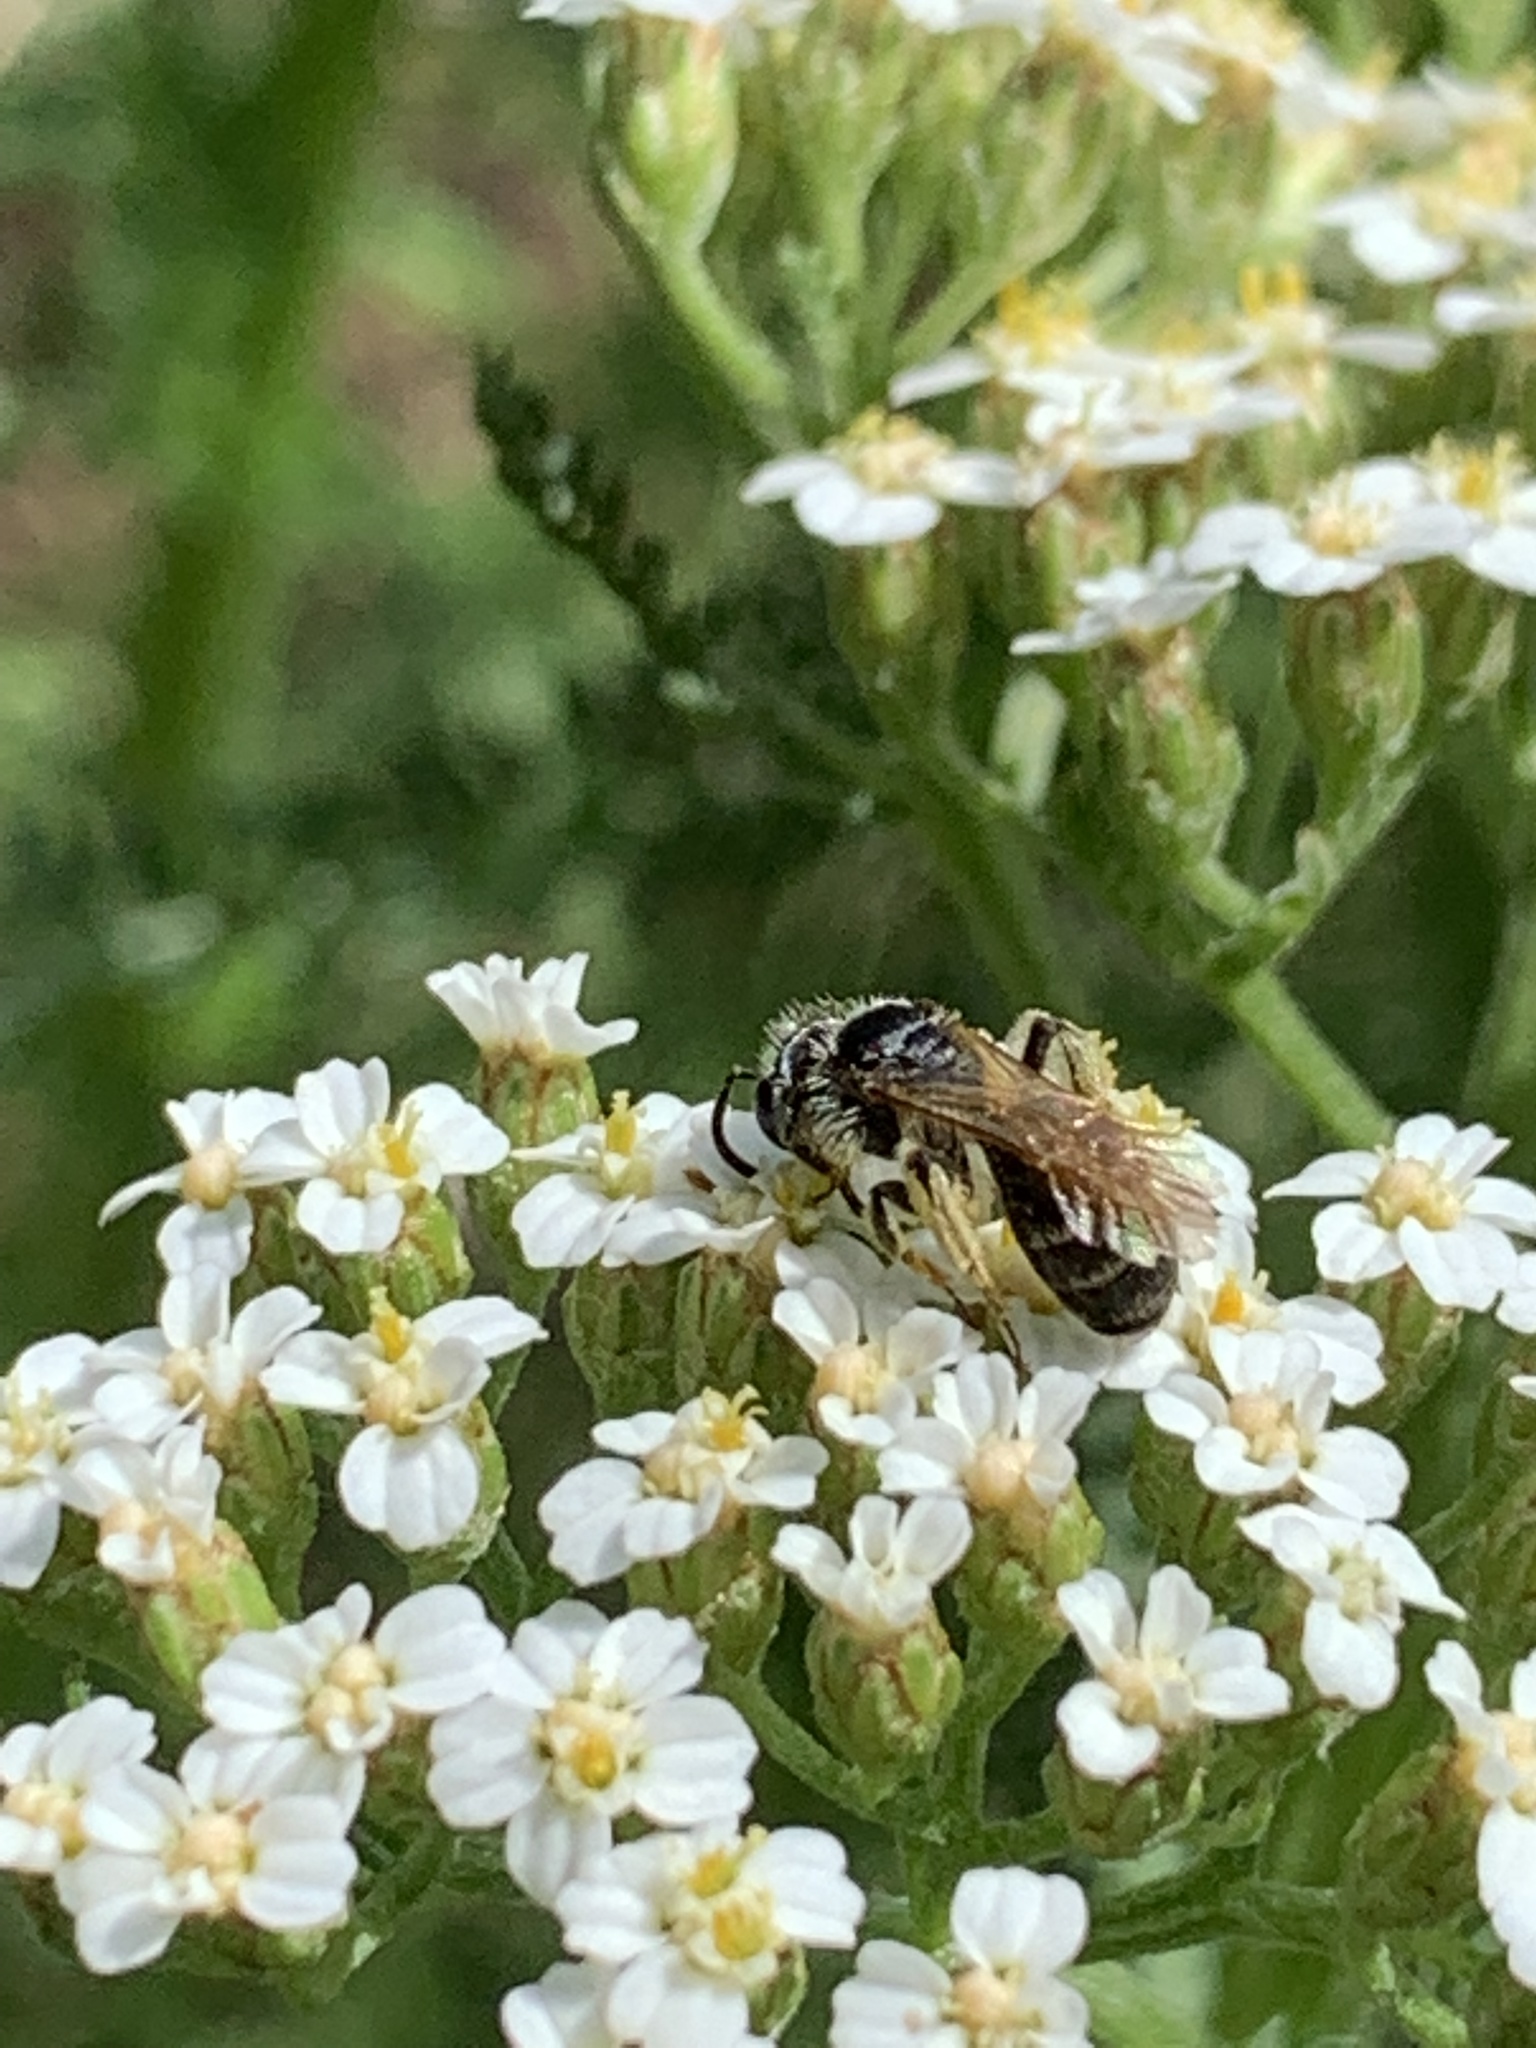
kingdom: Animalia
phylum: Arthropoda
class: Insecta
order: Hymenoptera
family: Andrenidae
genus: Andrena
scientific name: Andrena
